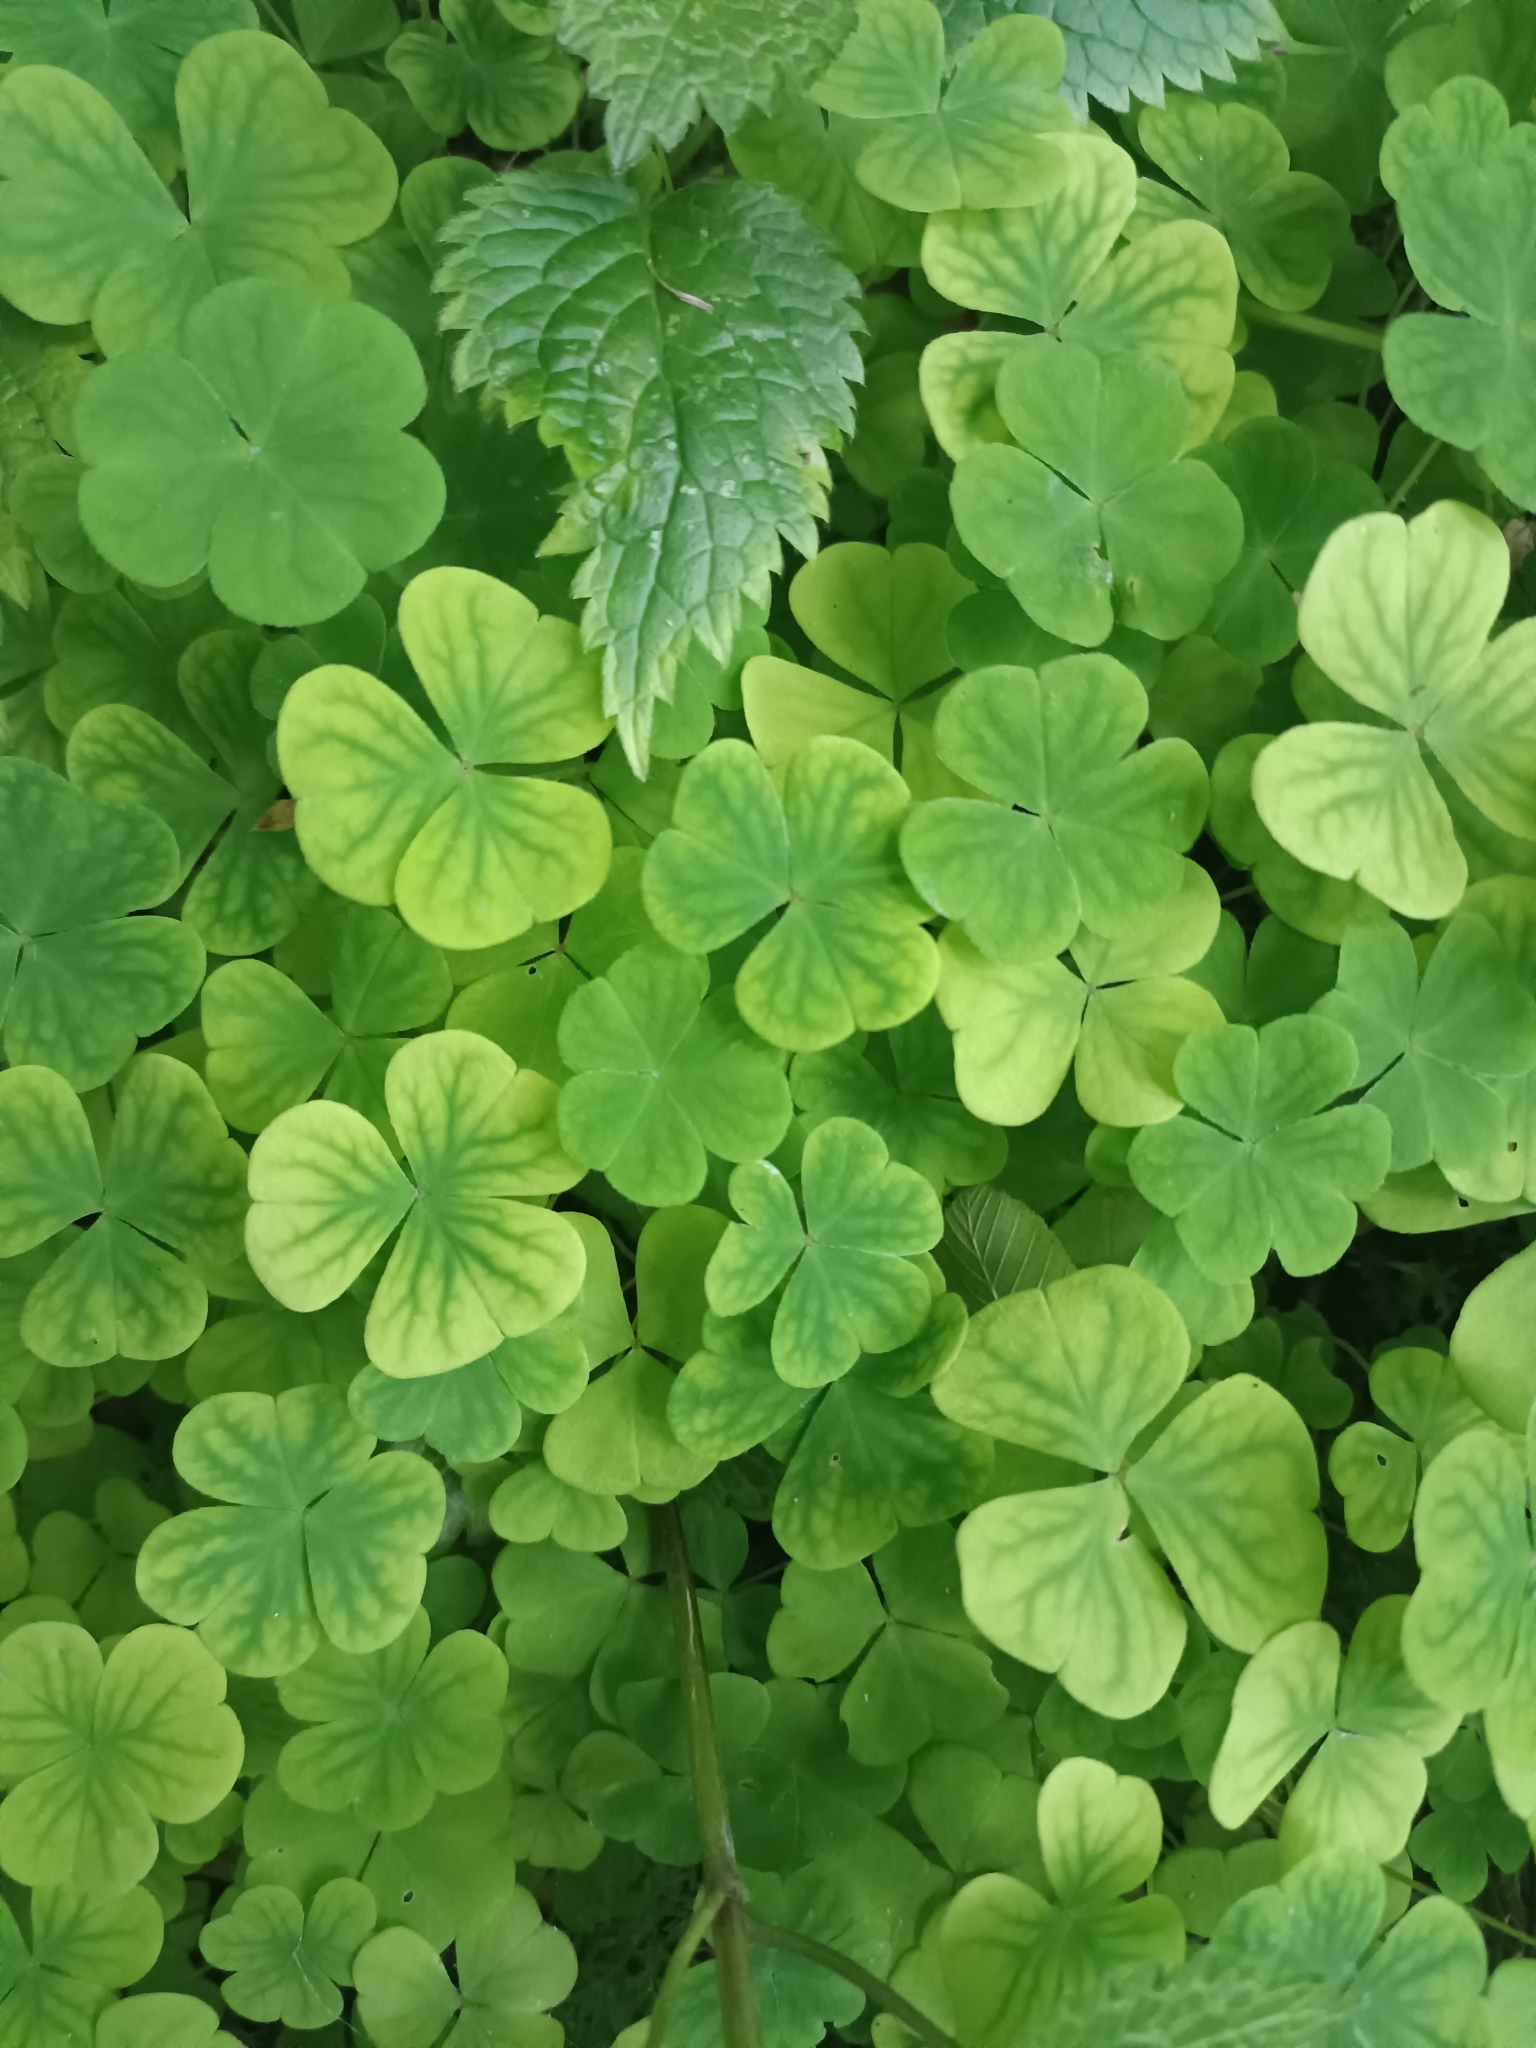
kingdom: Plantae
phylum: Tracheophyta
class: Magnoliopsida
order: Oxalidales
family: Oxalidaceae
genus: Oxalis
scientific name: Oxalis acetosella
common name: Wood-sorrel
